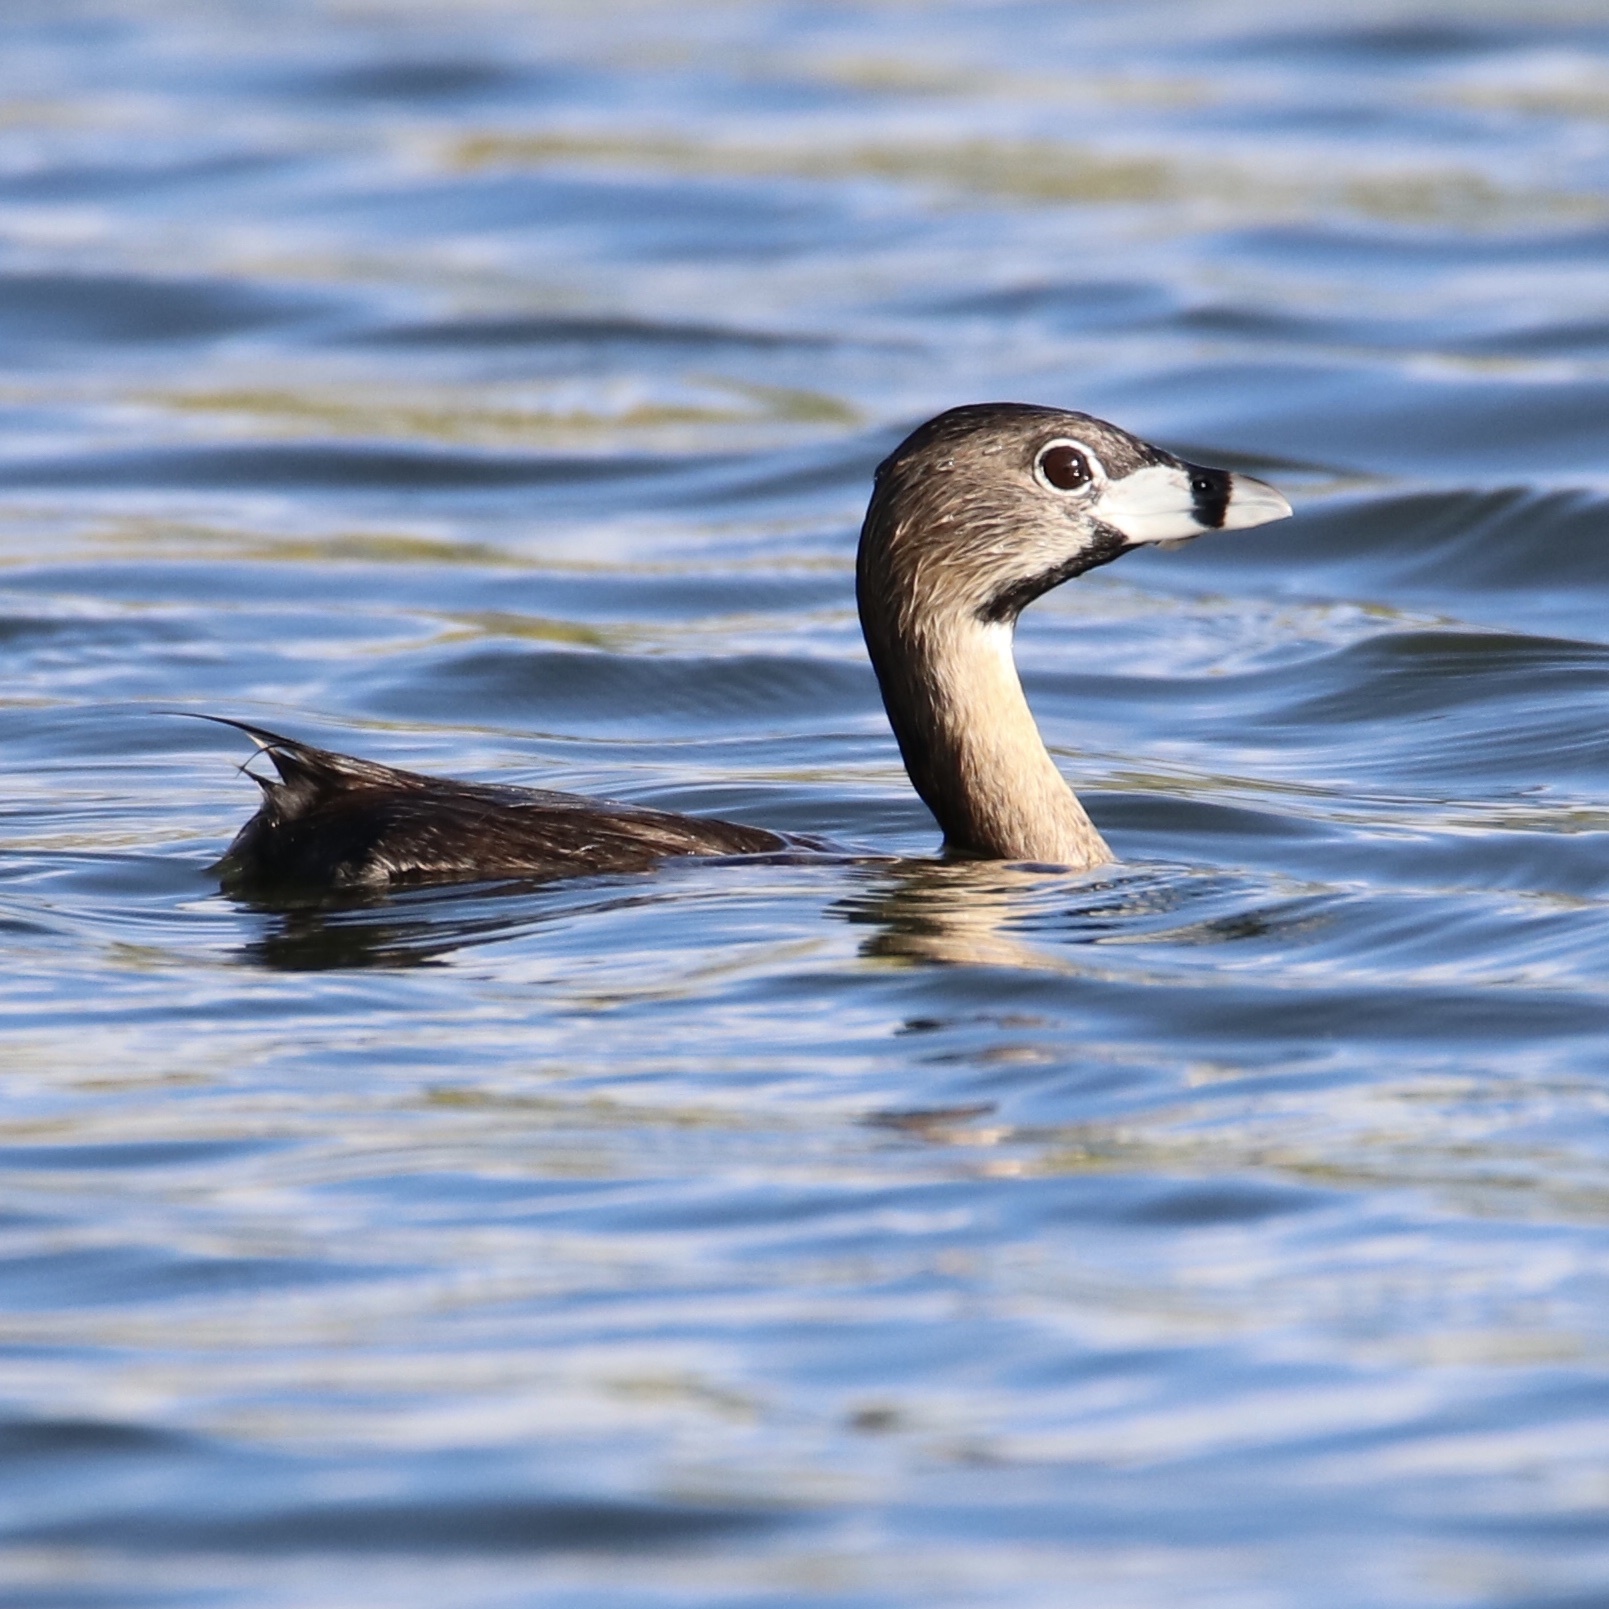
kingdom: Animalia
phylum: Chordata
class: Aves
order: Podicipediformes
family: Podicipedidae
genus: Podilymbus
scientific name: Podilymbus podiceps
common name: Pied-billed grebe
